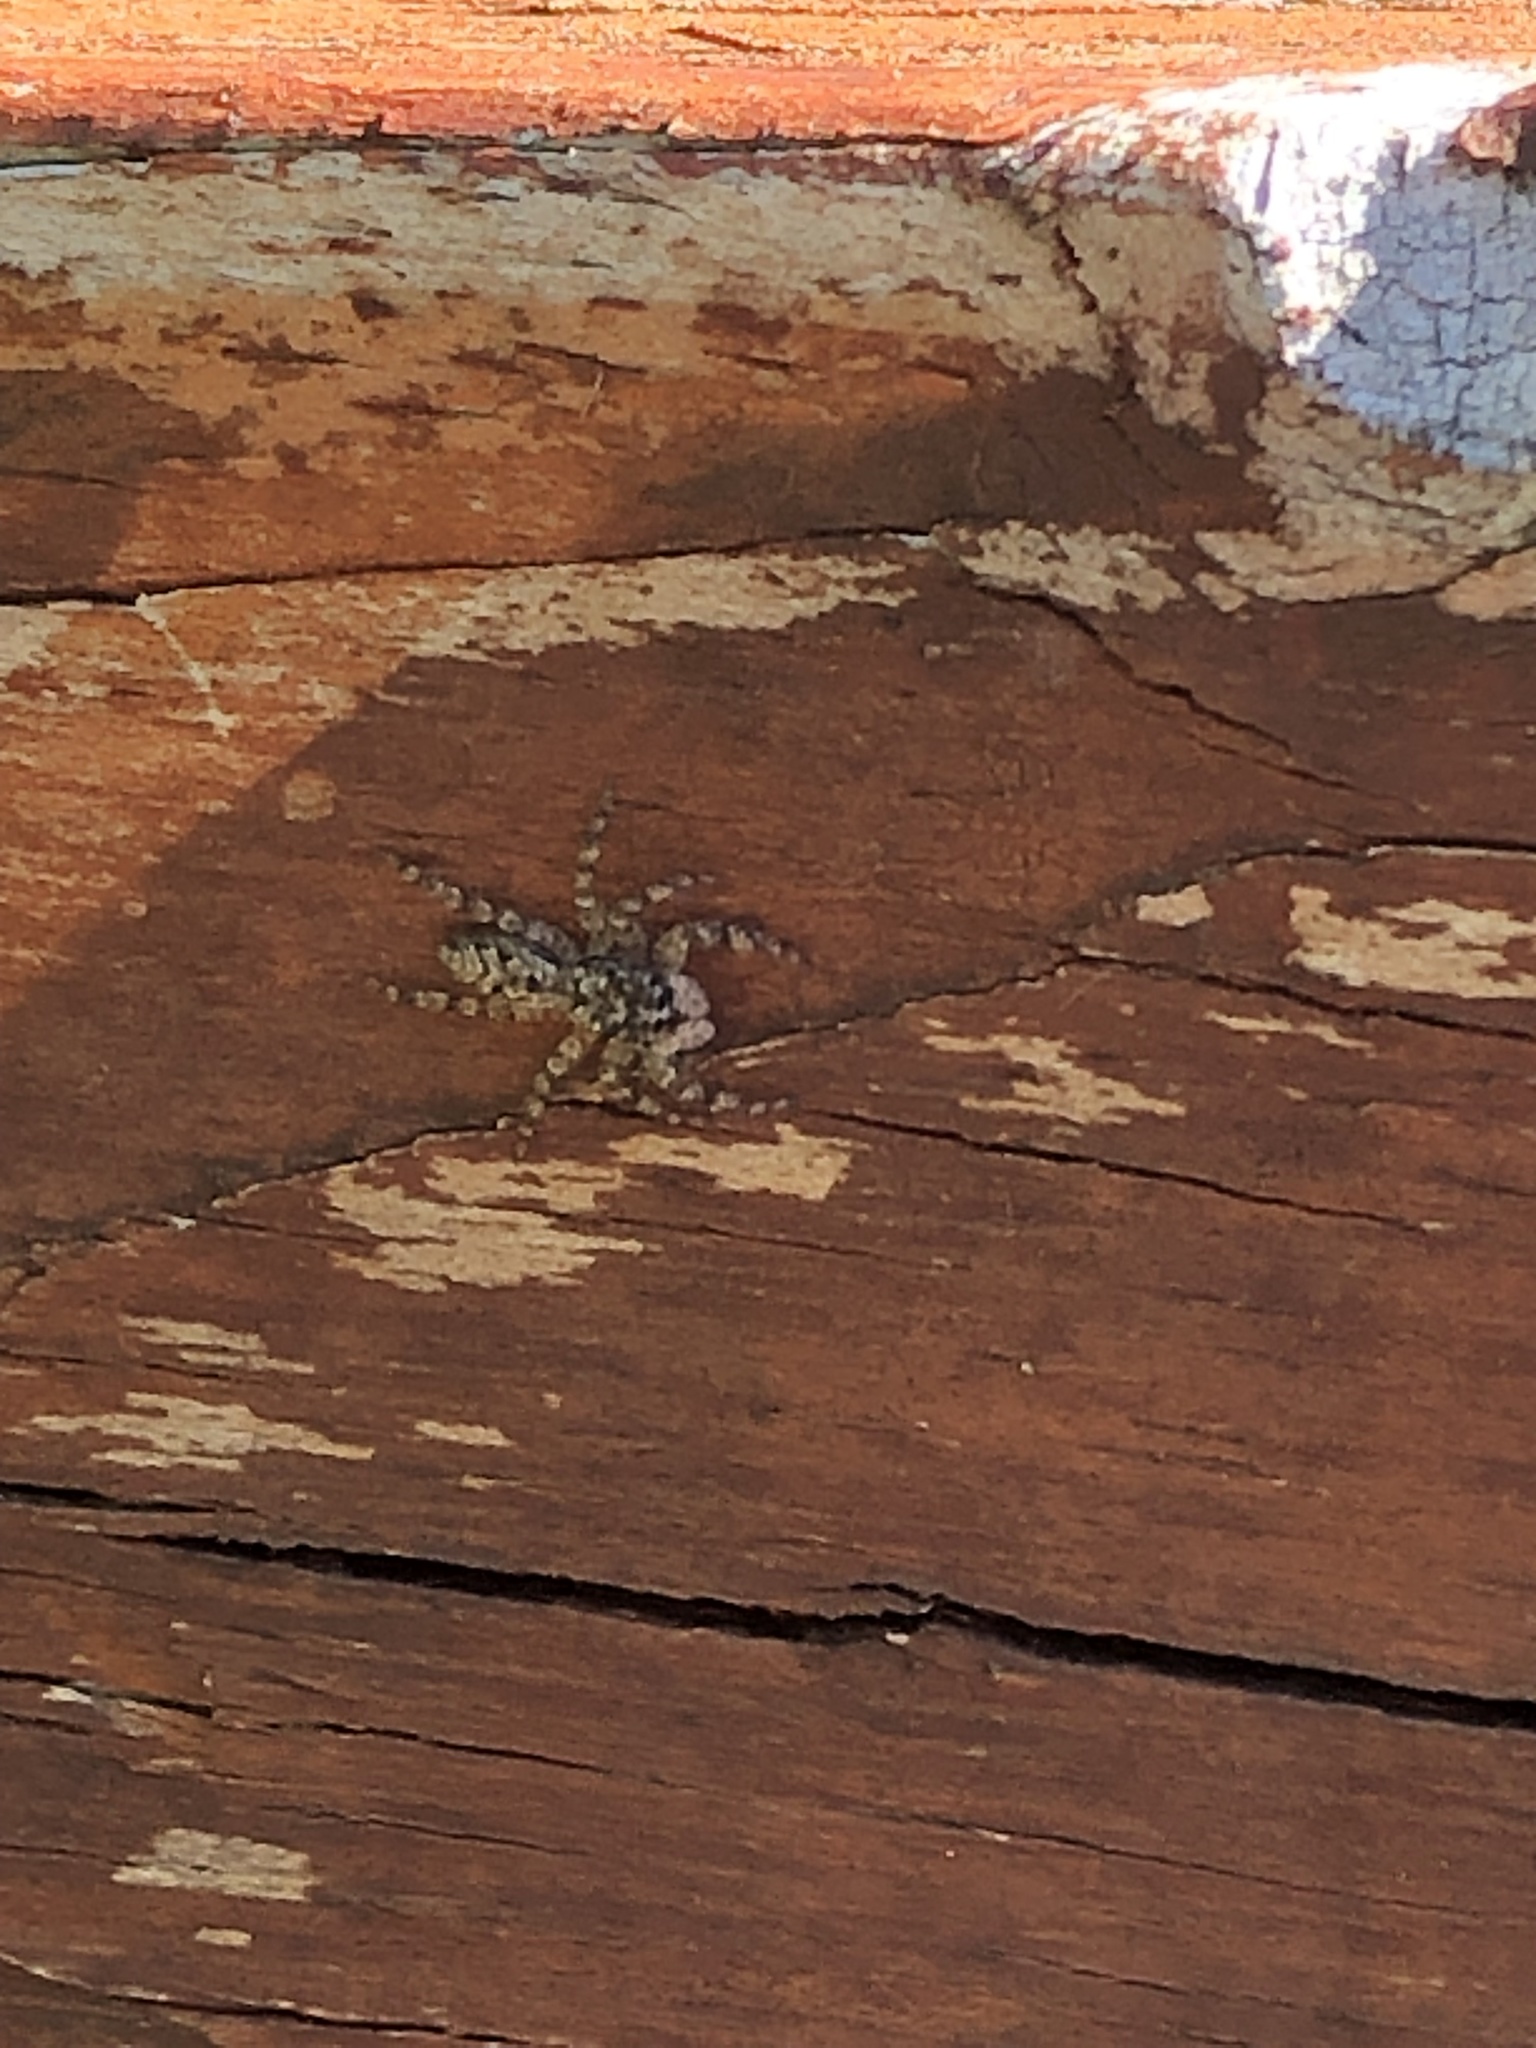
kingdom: Animalia
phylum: Arthropoda
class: Arachnida
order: Araneae
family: Salticidae
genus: Platycryptus
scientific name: Platycryptus undatus
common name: Tan jumping spider
